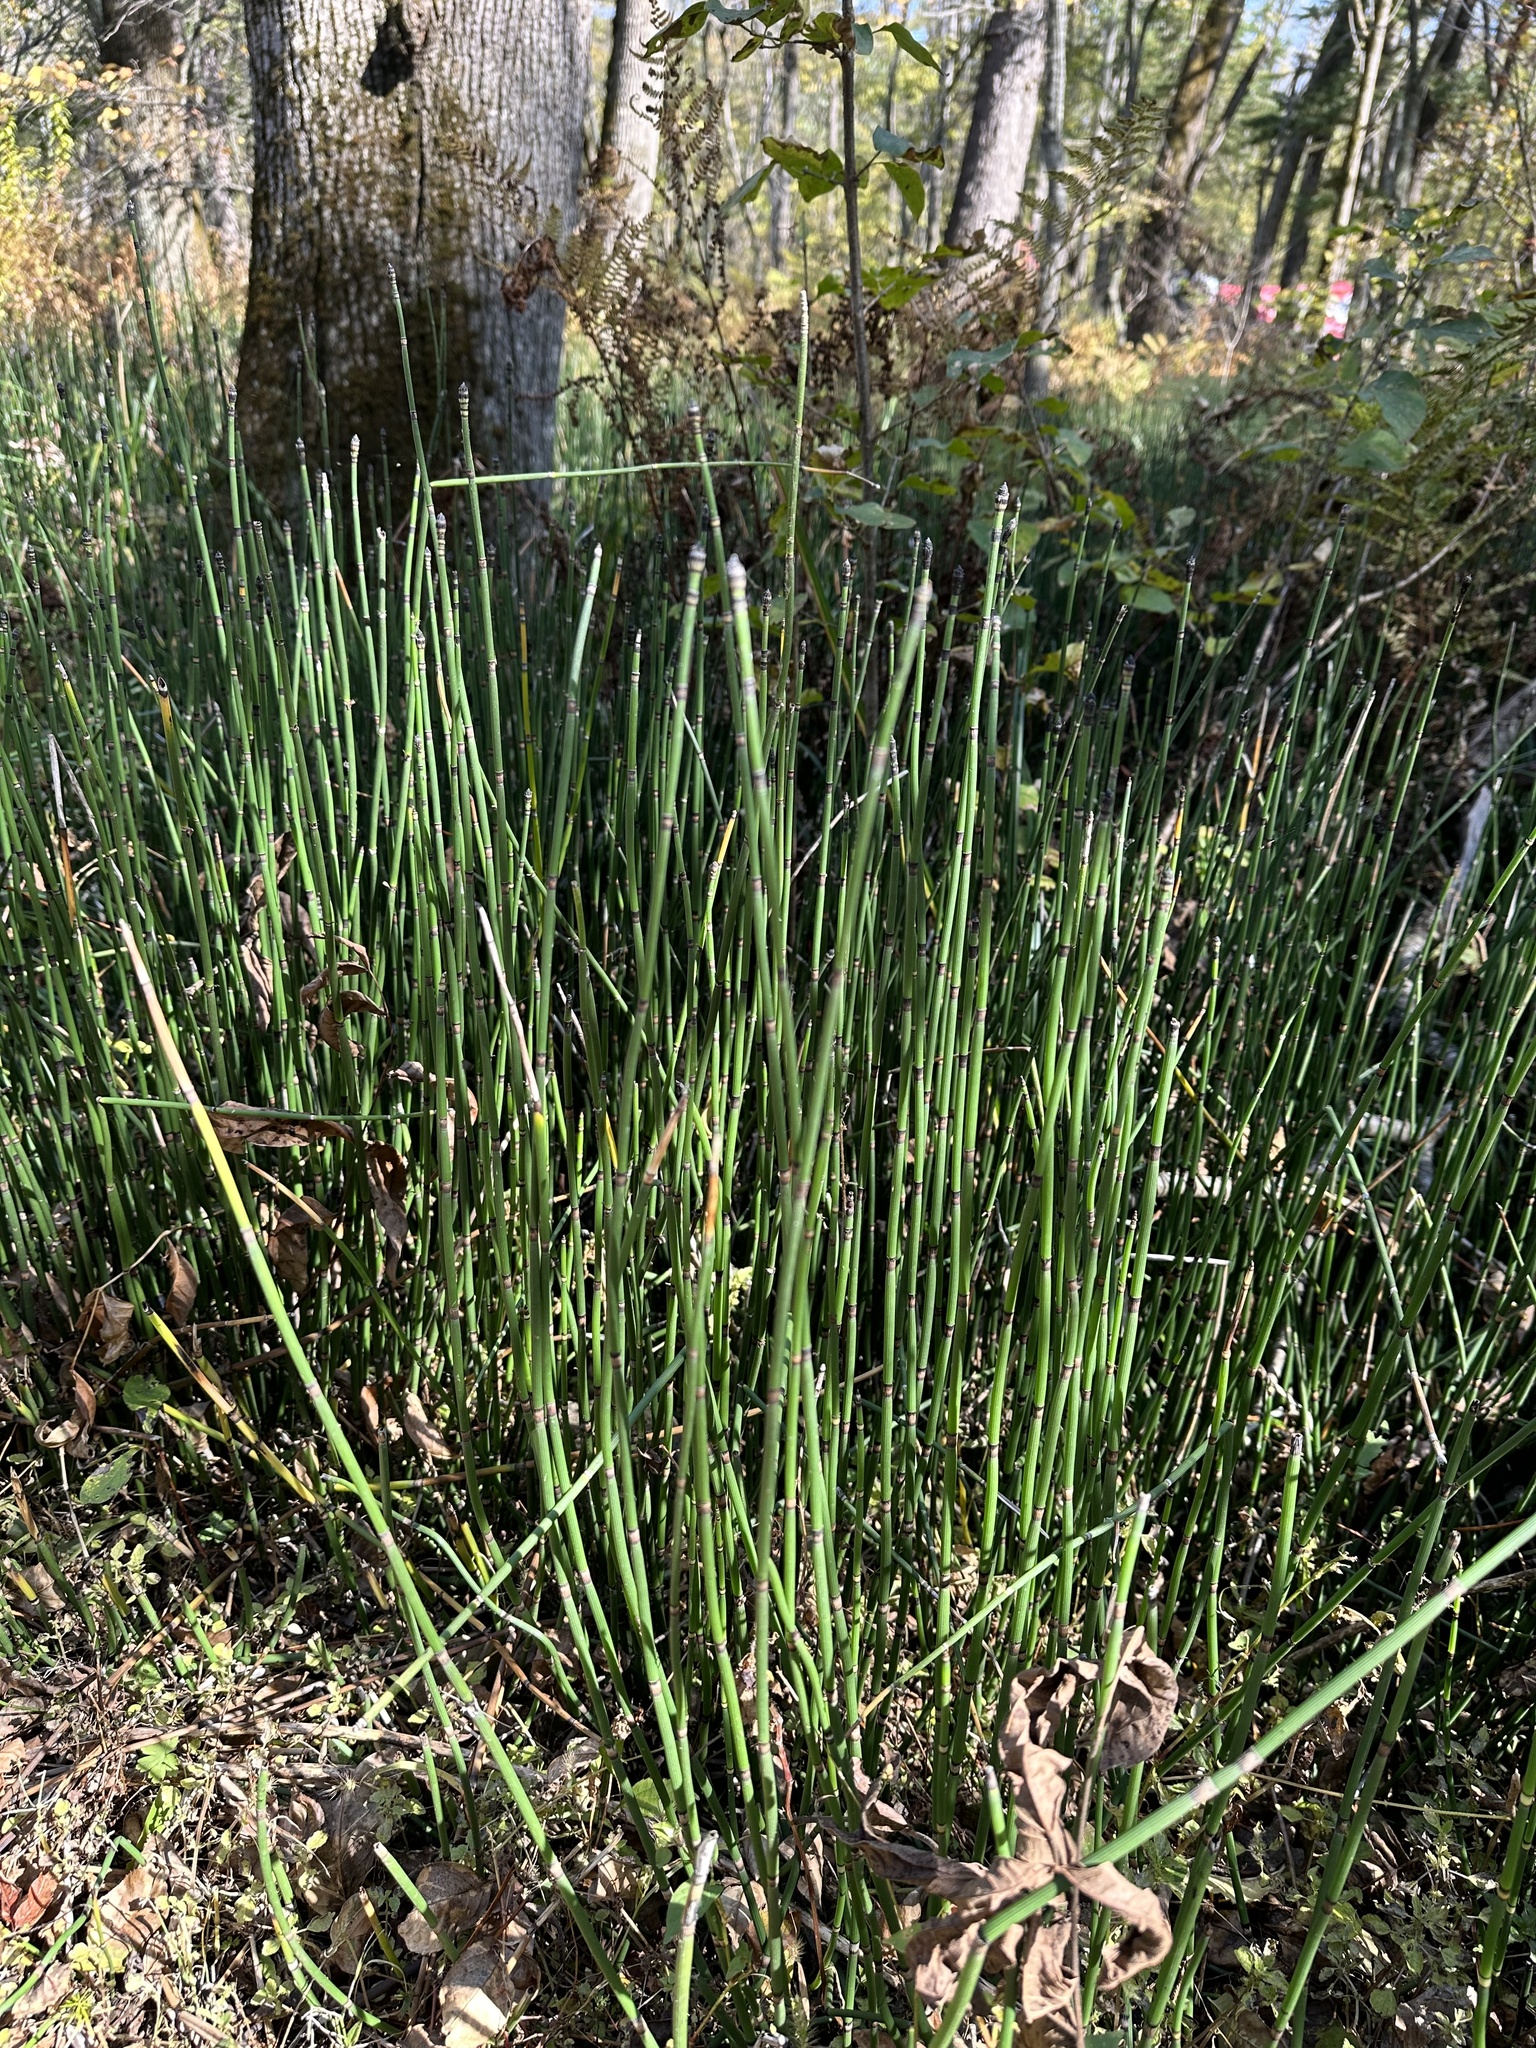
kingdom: Plantae
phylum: Tracheophyta
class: Polypodiopsida
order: Equisetales
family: Equisetaceae
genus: Equisetum
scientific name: Equisetum hyemale
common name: Rough horsetail
